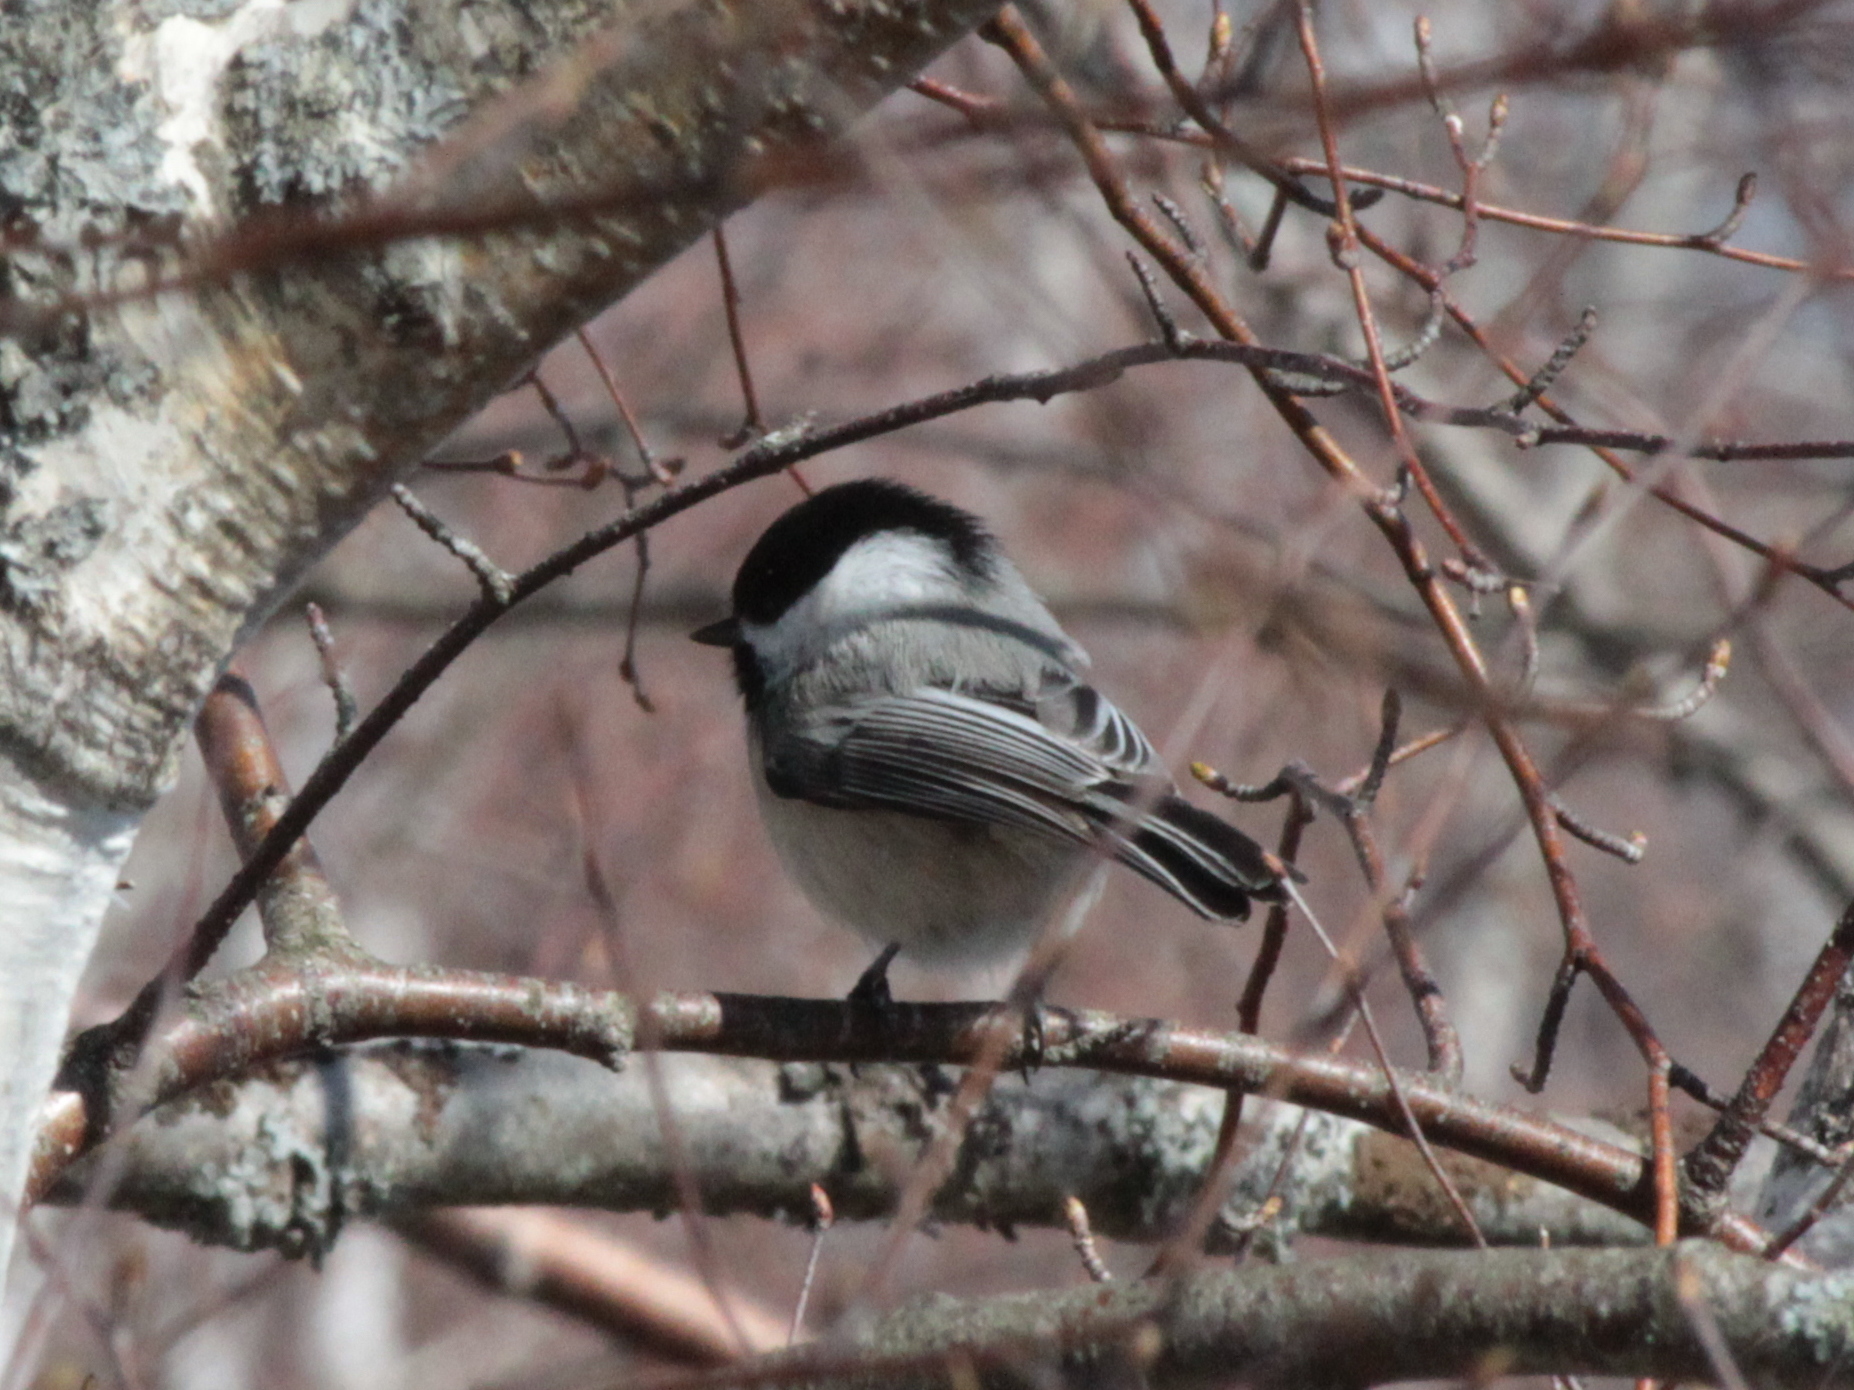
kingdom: Animalia
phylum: Chordata
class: Aves
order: Passeriformes
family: Paridae
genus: Poecile
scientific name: Poecile atricapillus
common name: Black-capped chickadee
